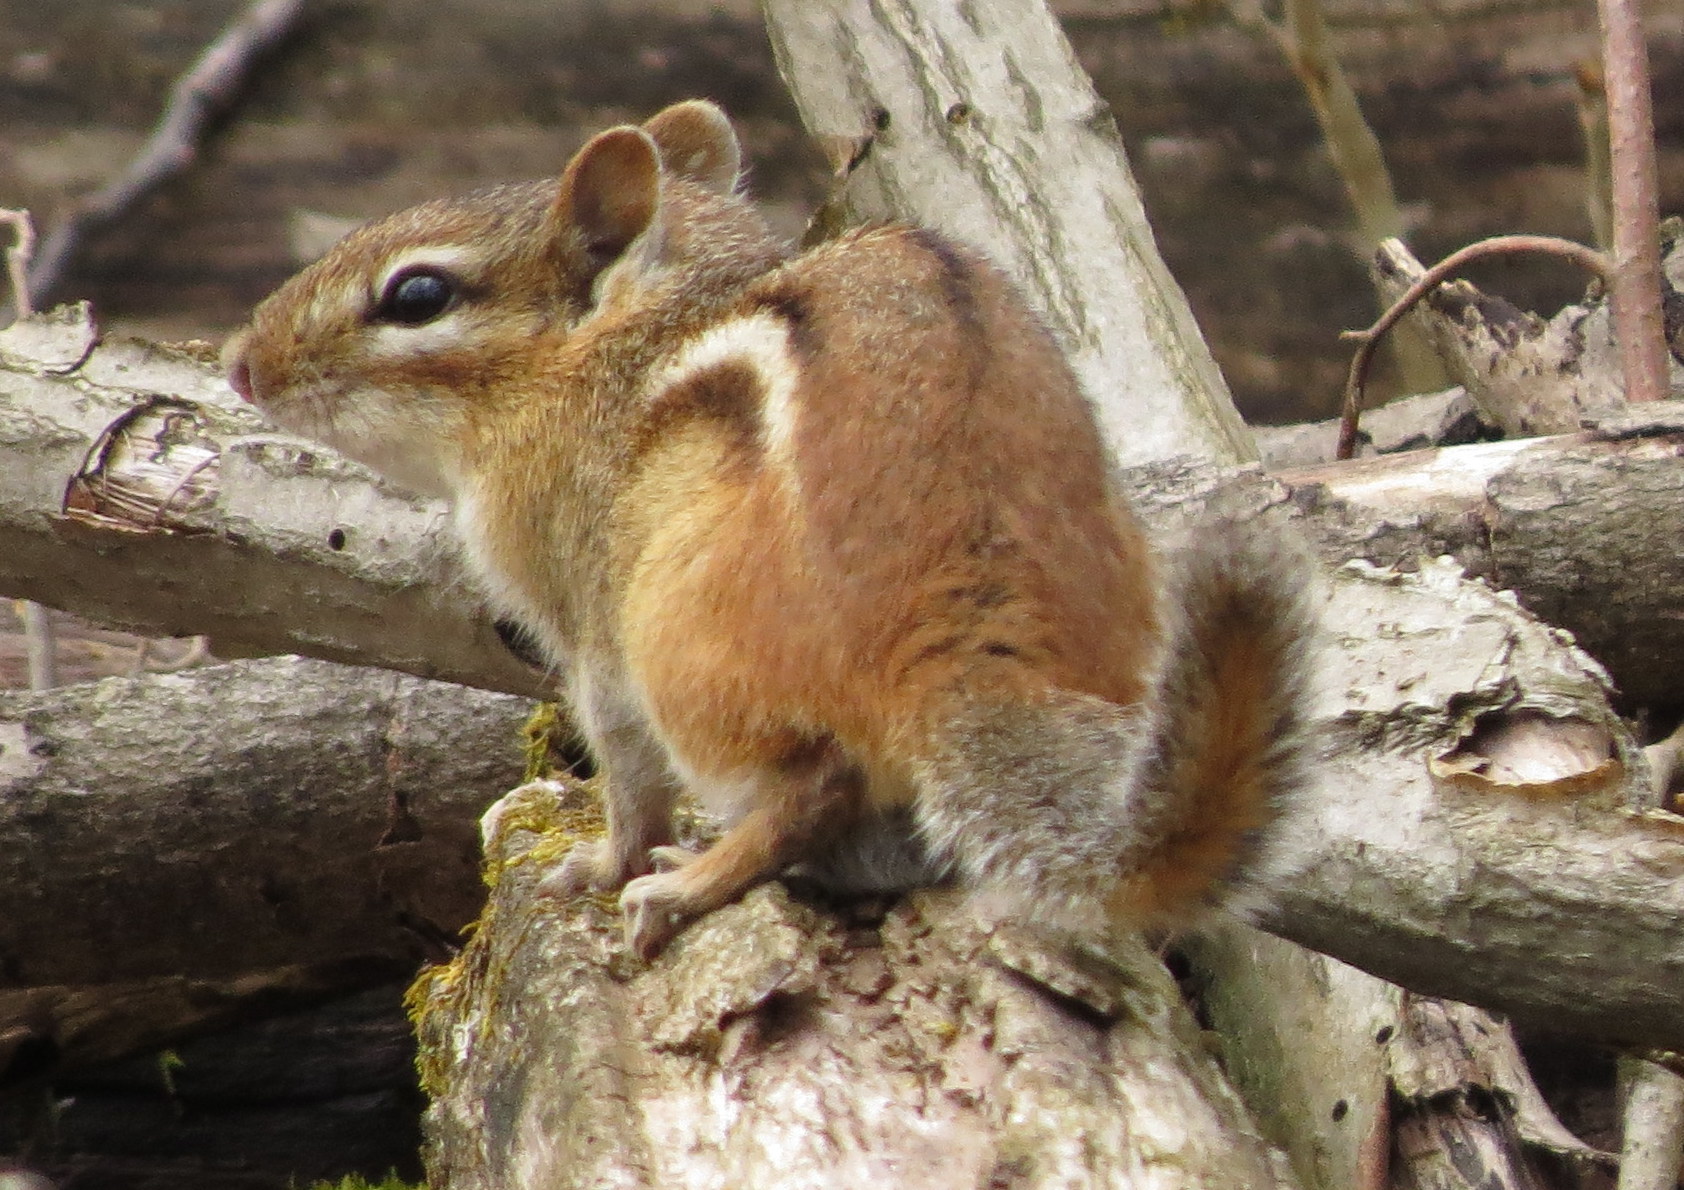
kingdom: Animalia
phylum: Chordata
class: Mammalia
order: Rodentia
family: Sciuridae
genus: Tamias
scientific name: Tamias striatus
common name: Eastern chipmunk
